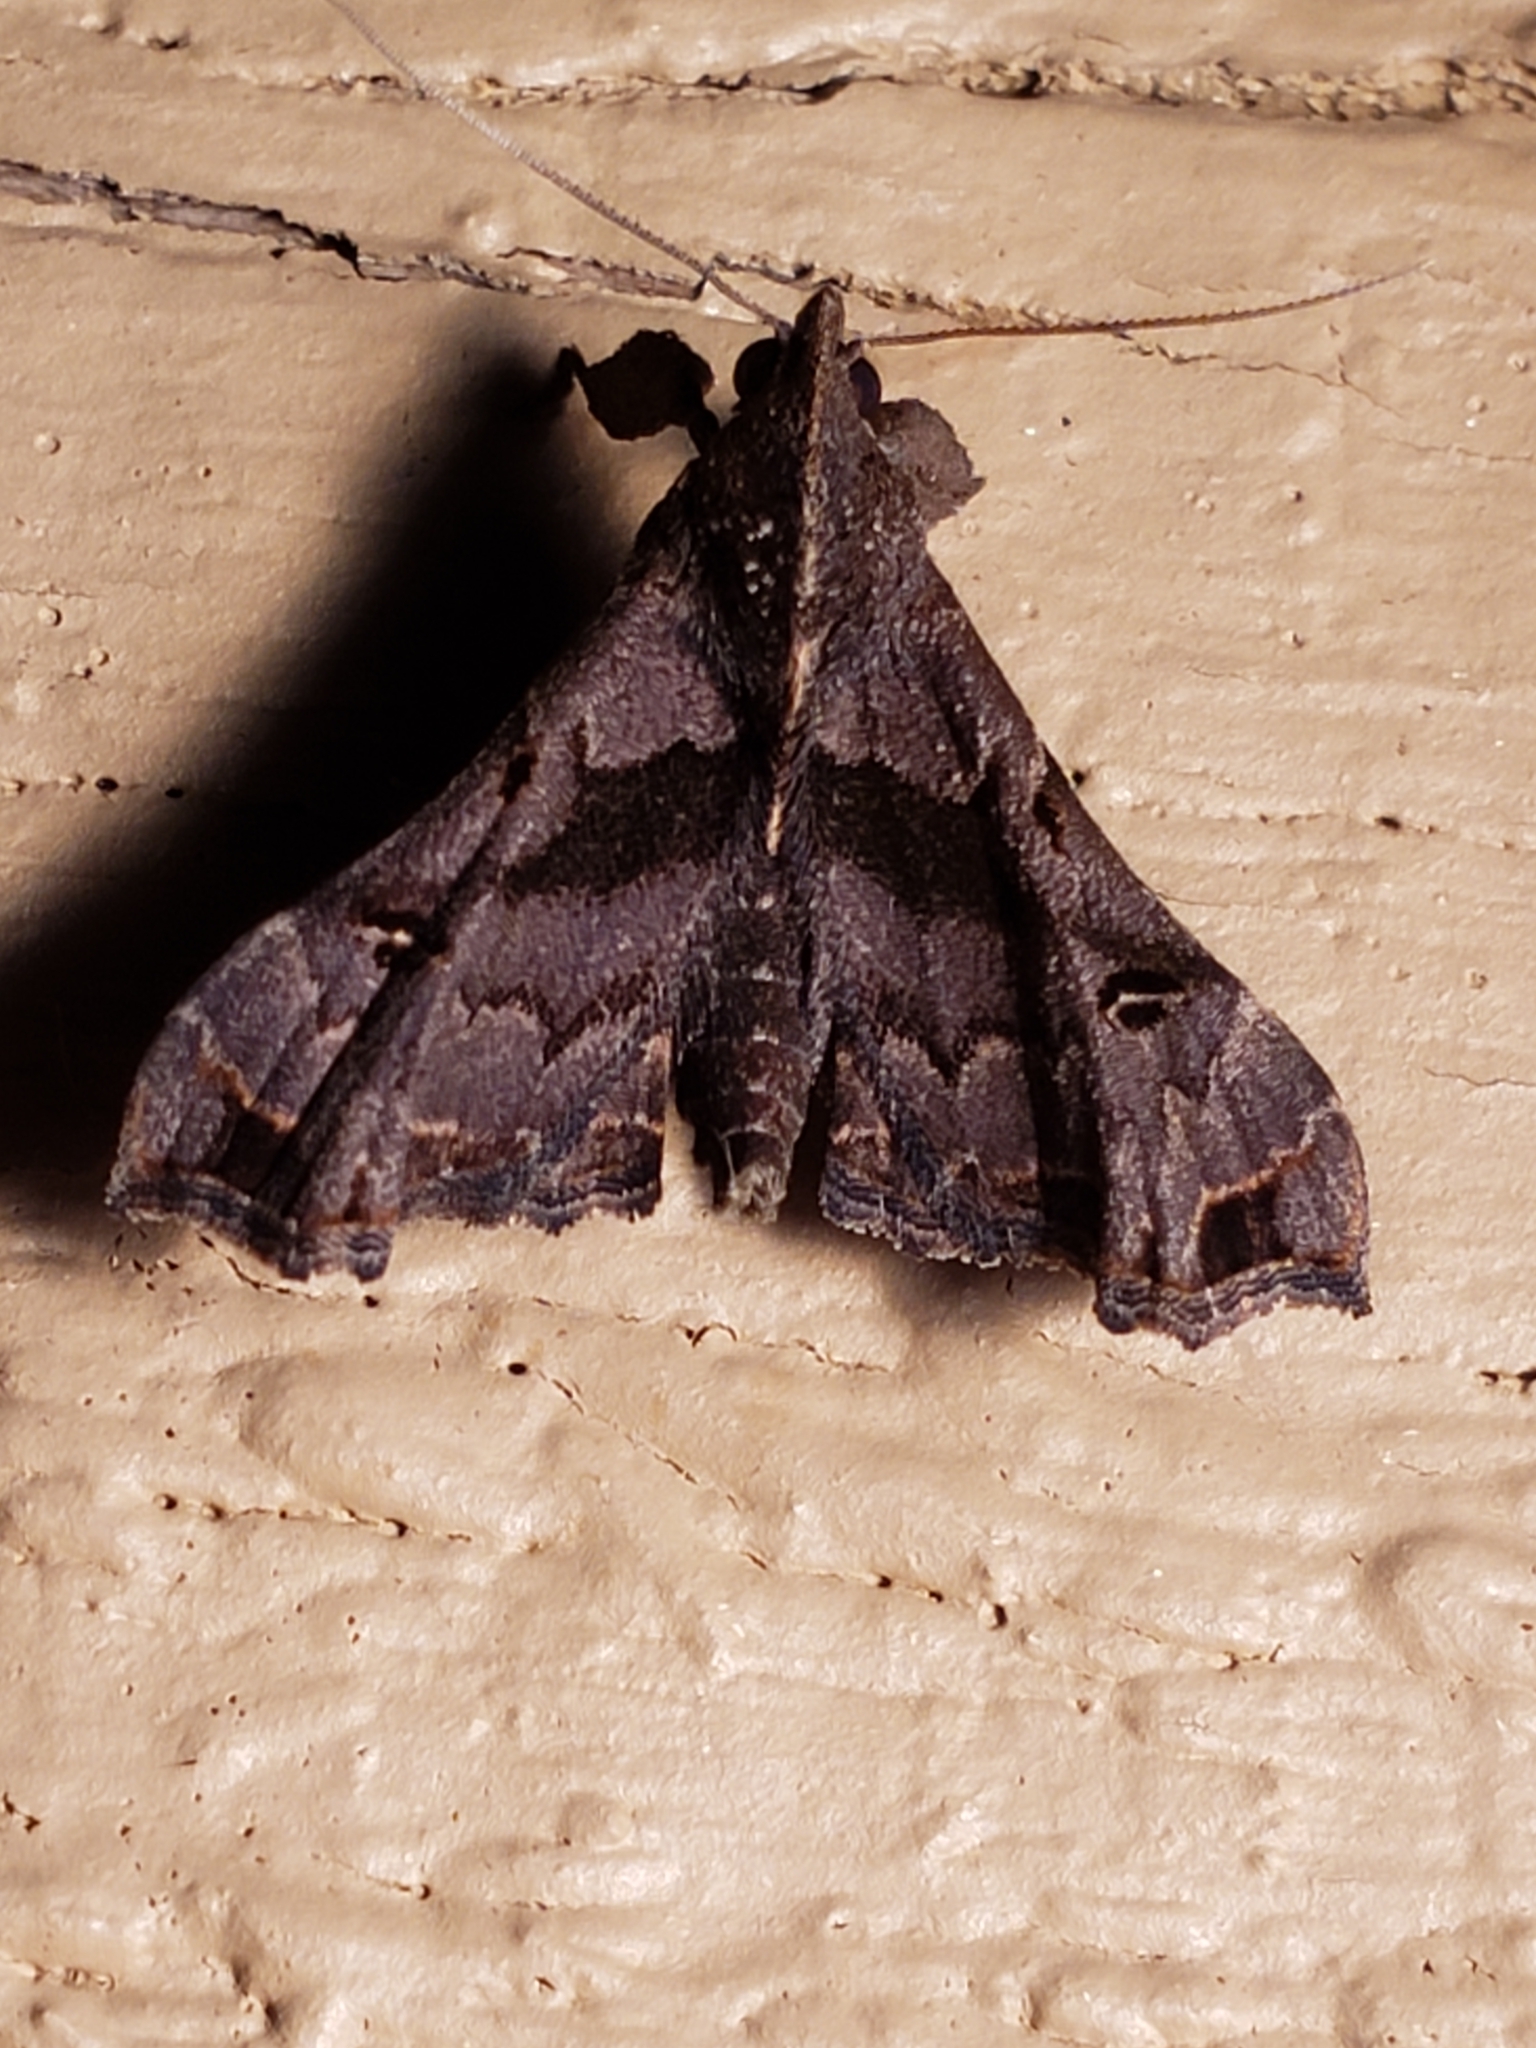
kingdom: Animalia
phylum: Arthropoda
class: Insecta
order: Lepidoptera
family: Erebidae
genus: Palthis
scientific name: Palthis asopialis
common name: Faint-spotted palthis moth
